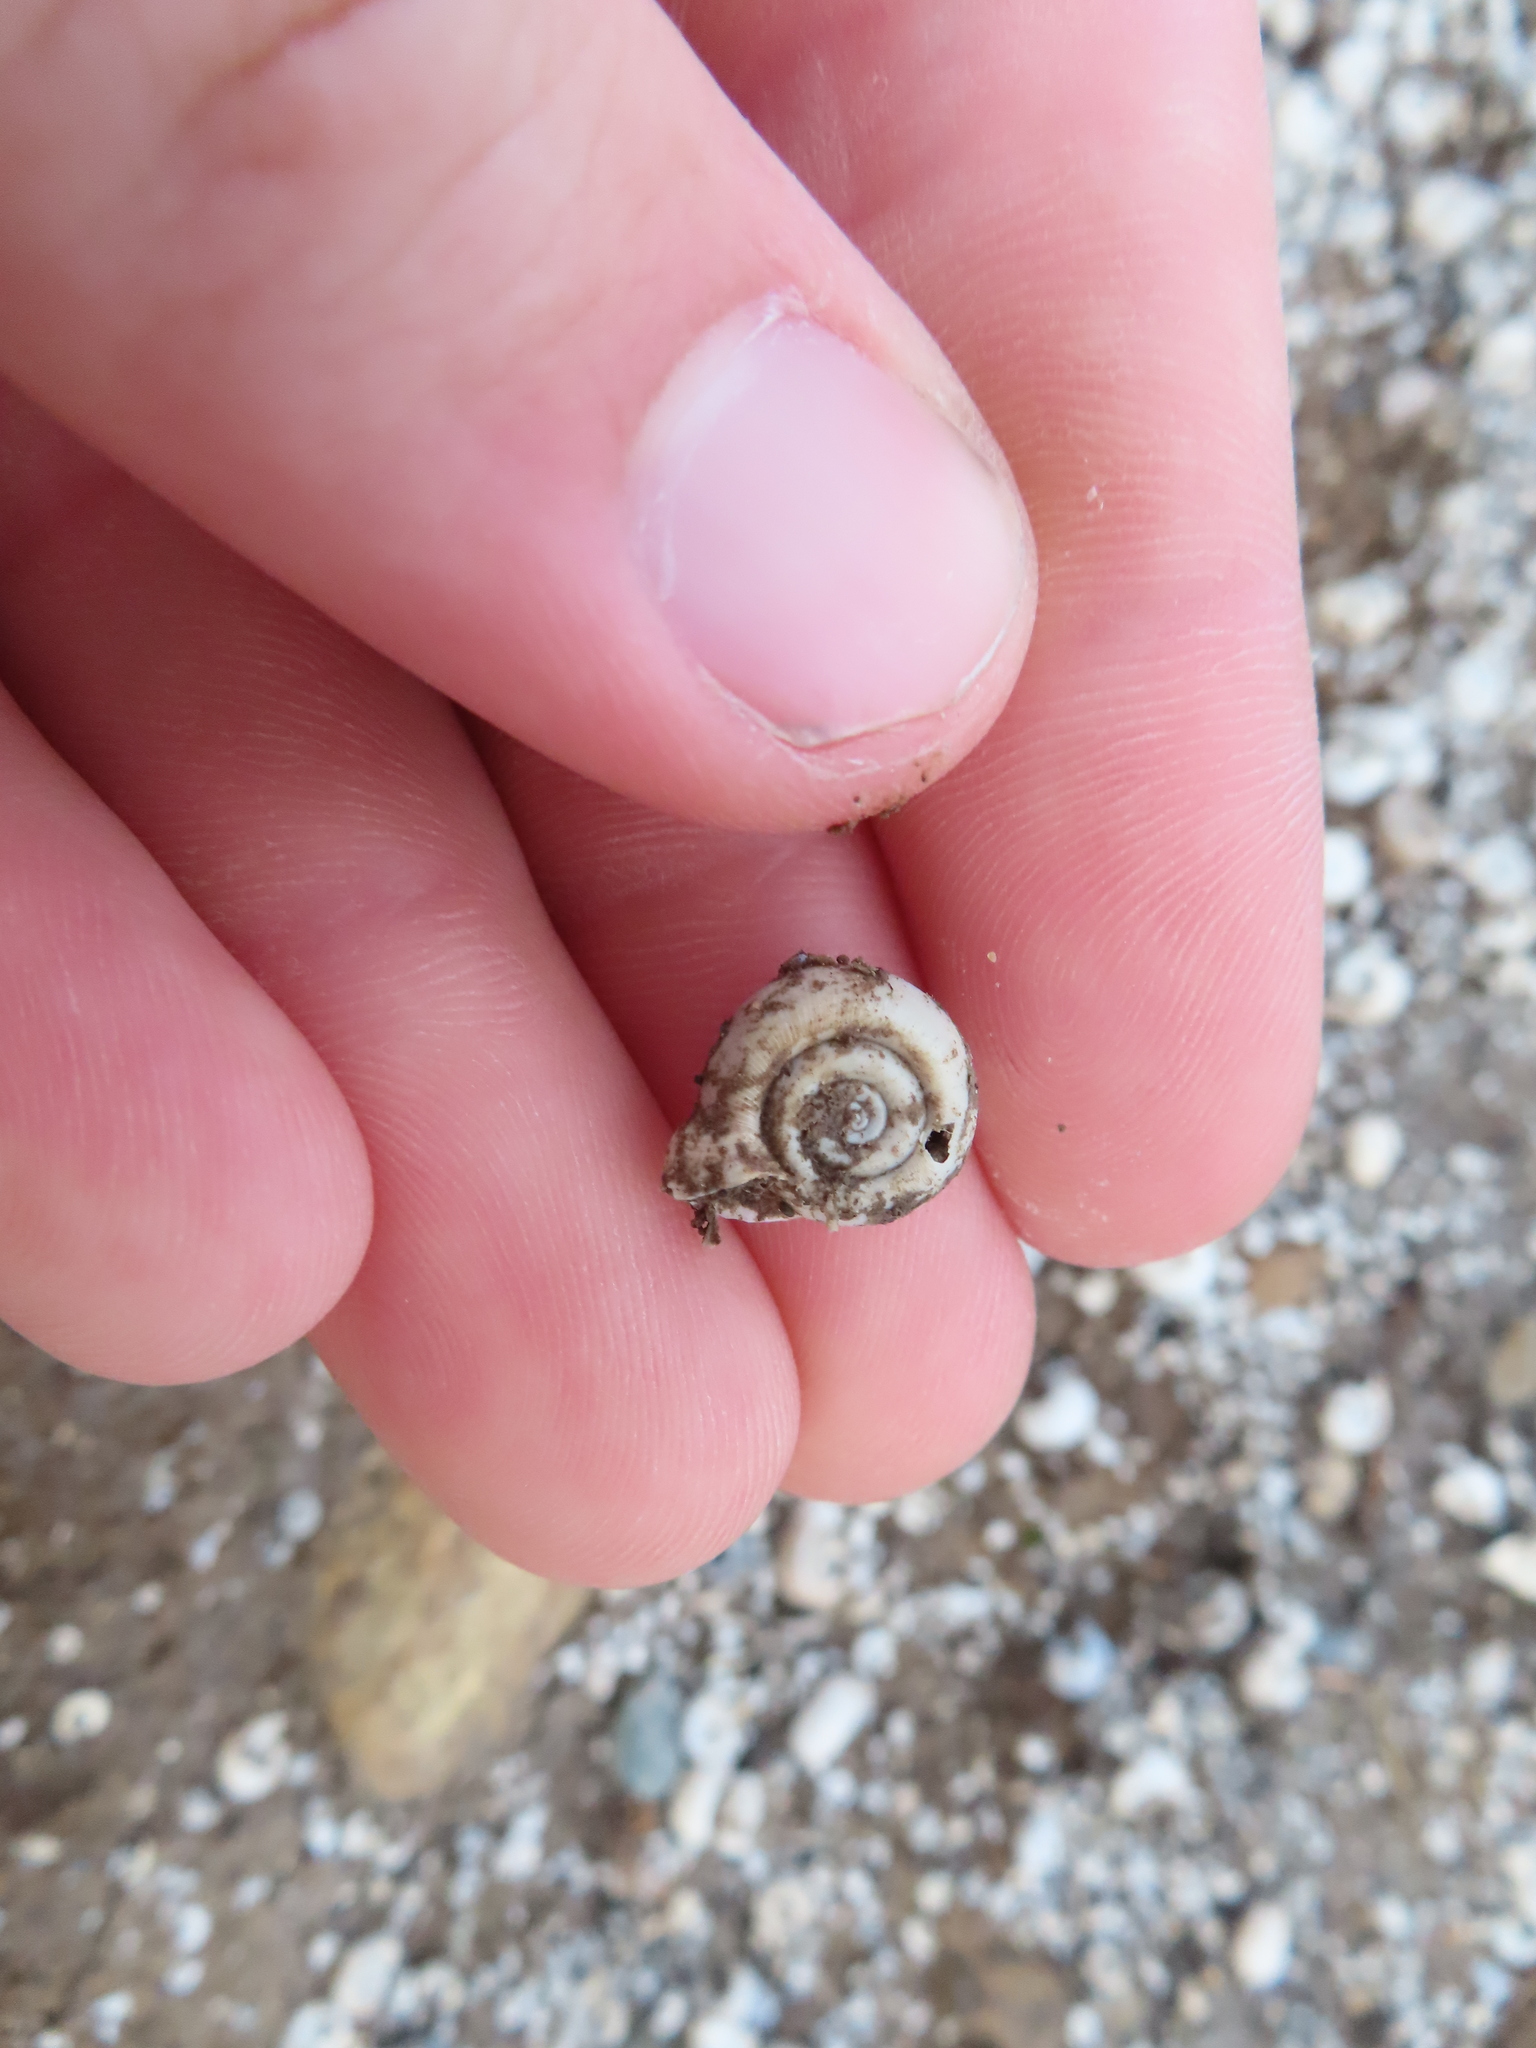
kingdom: Animalia
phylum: Mollusca
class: Gastropoda
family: Planorbidae
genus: Planorbella
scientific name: Planorbella campanulata
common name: Bellmouth ramshorn
